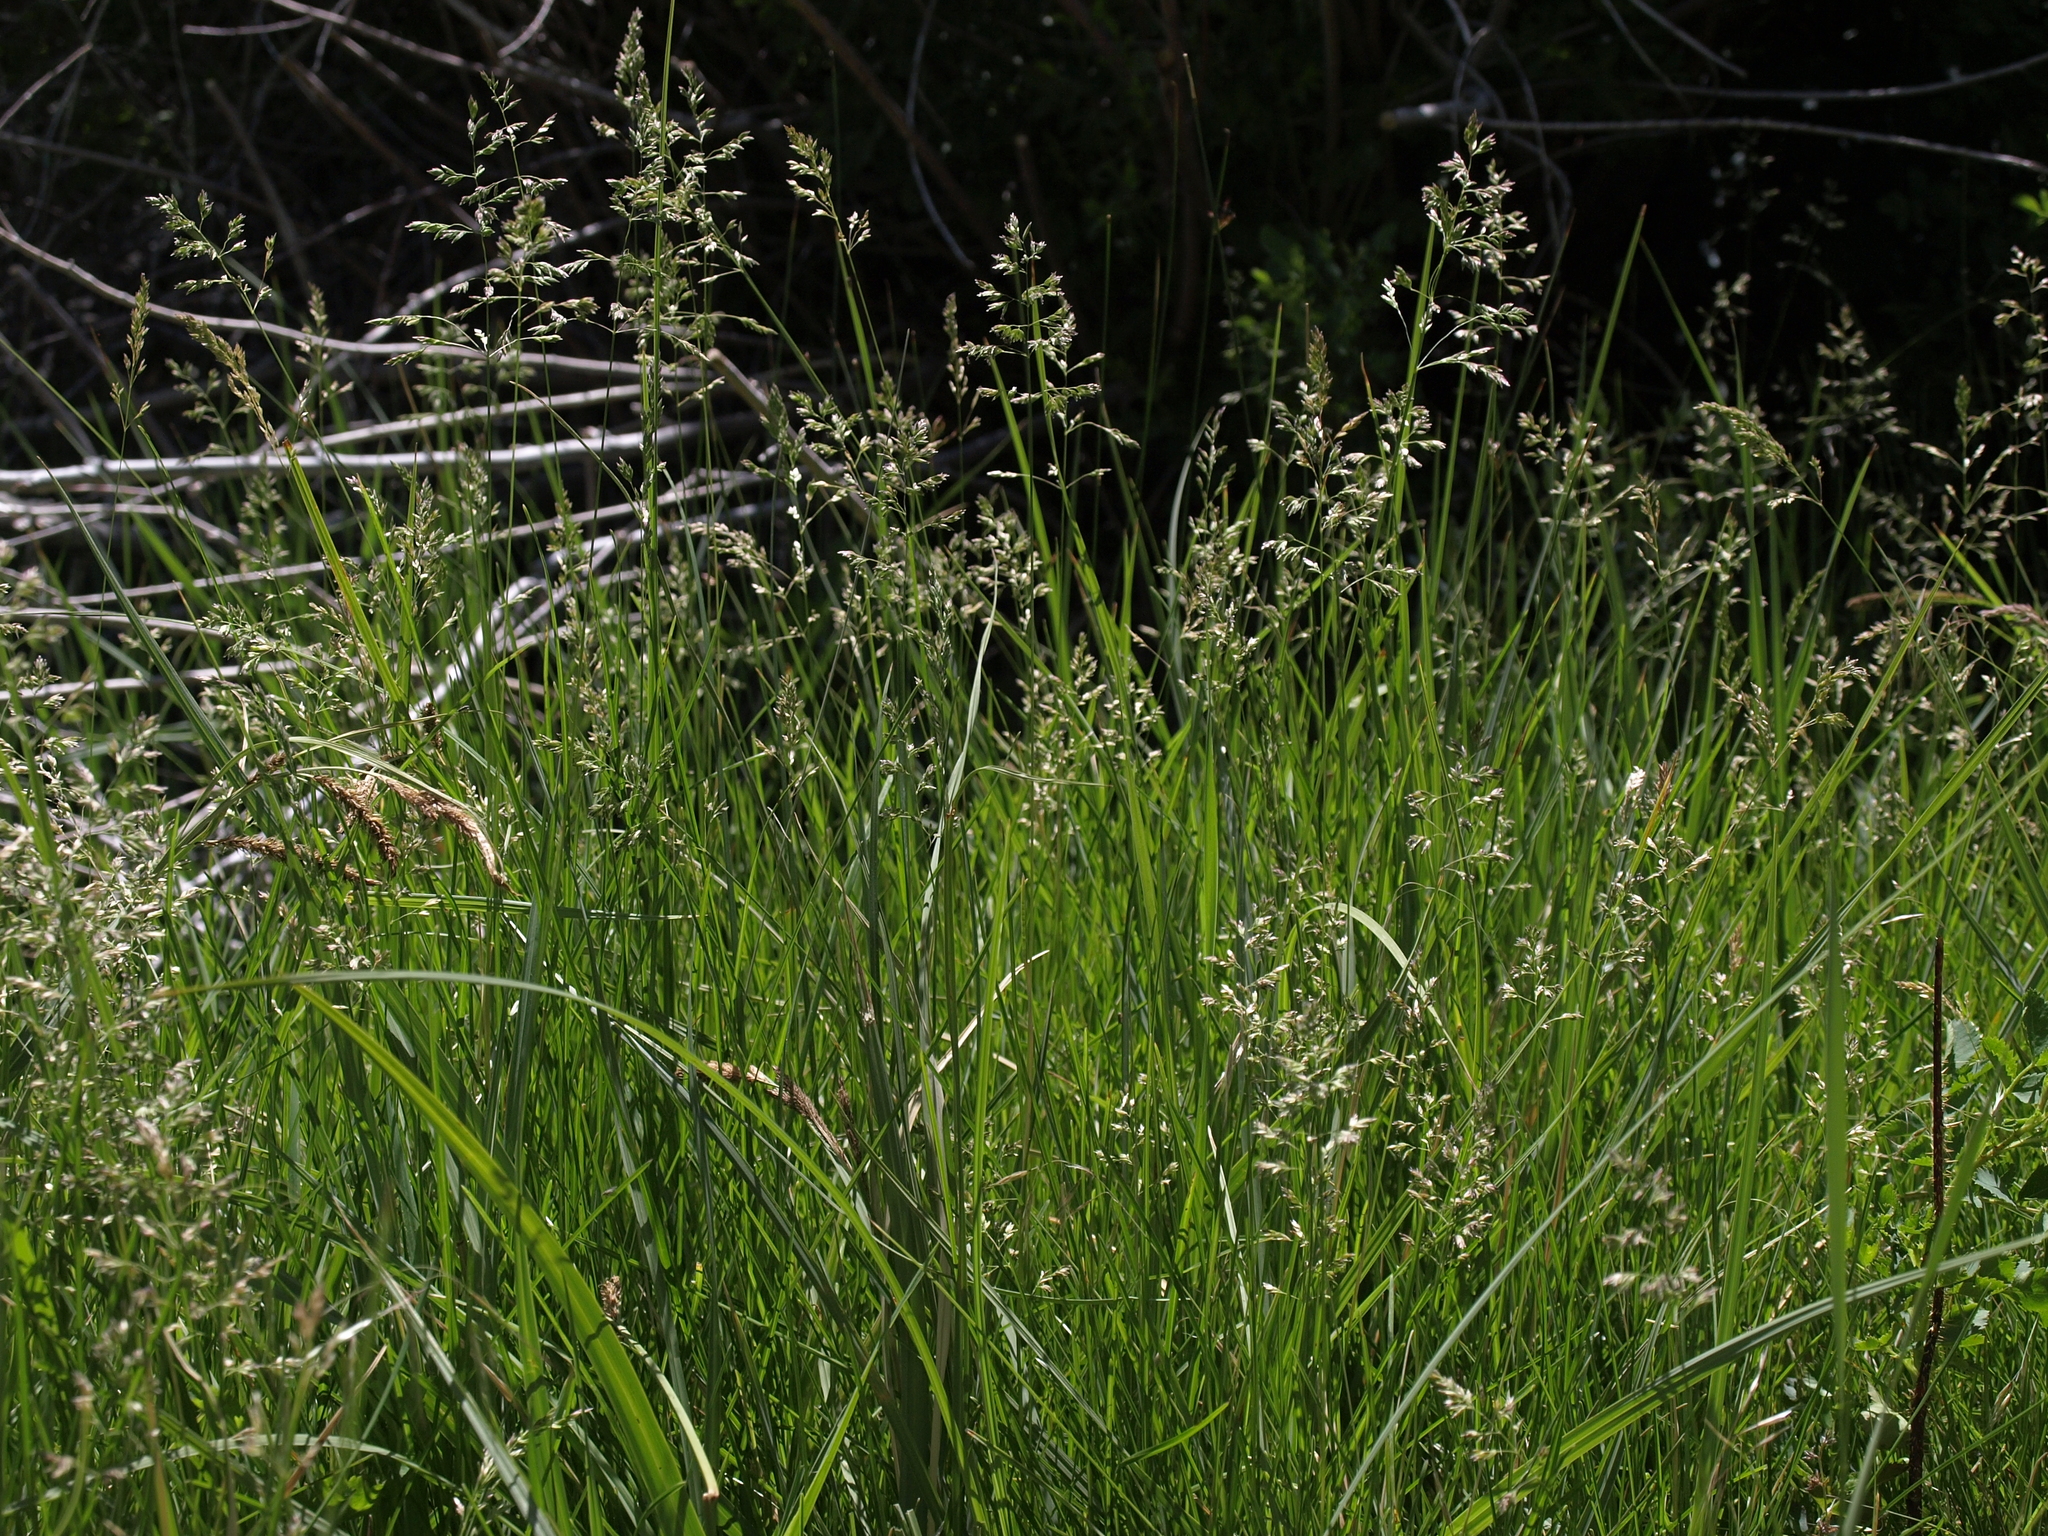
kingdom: Plantae
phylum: Tracheophyta
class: Liliopsida
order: Poales
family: Poaceae
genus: Poa
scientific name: Poa pratensis
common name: Kentucky bluegrass
